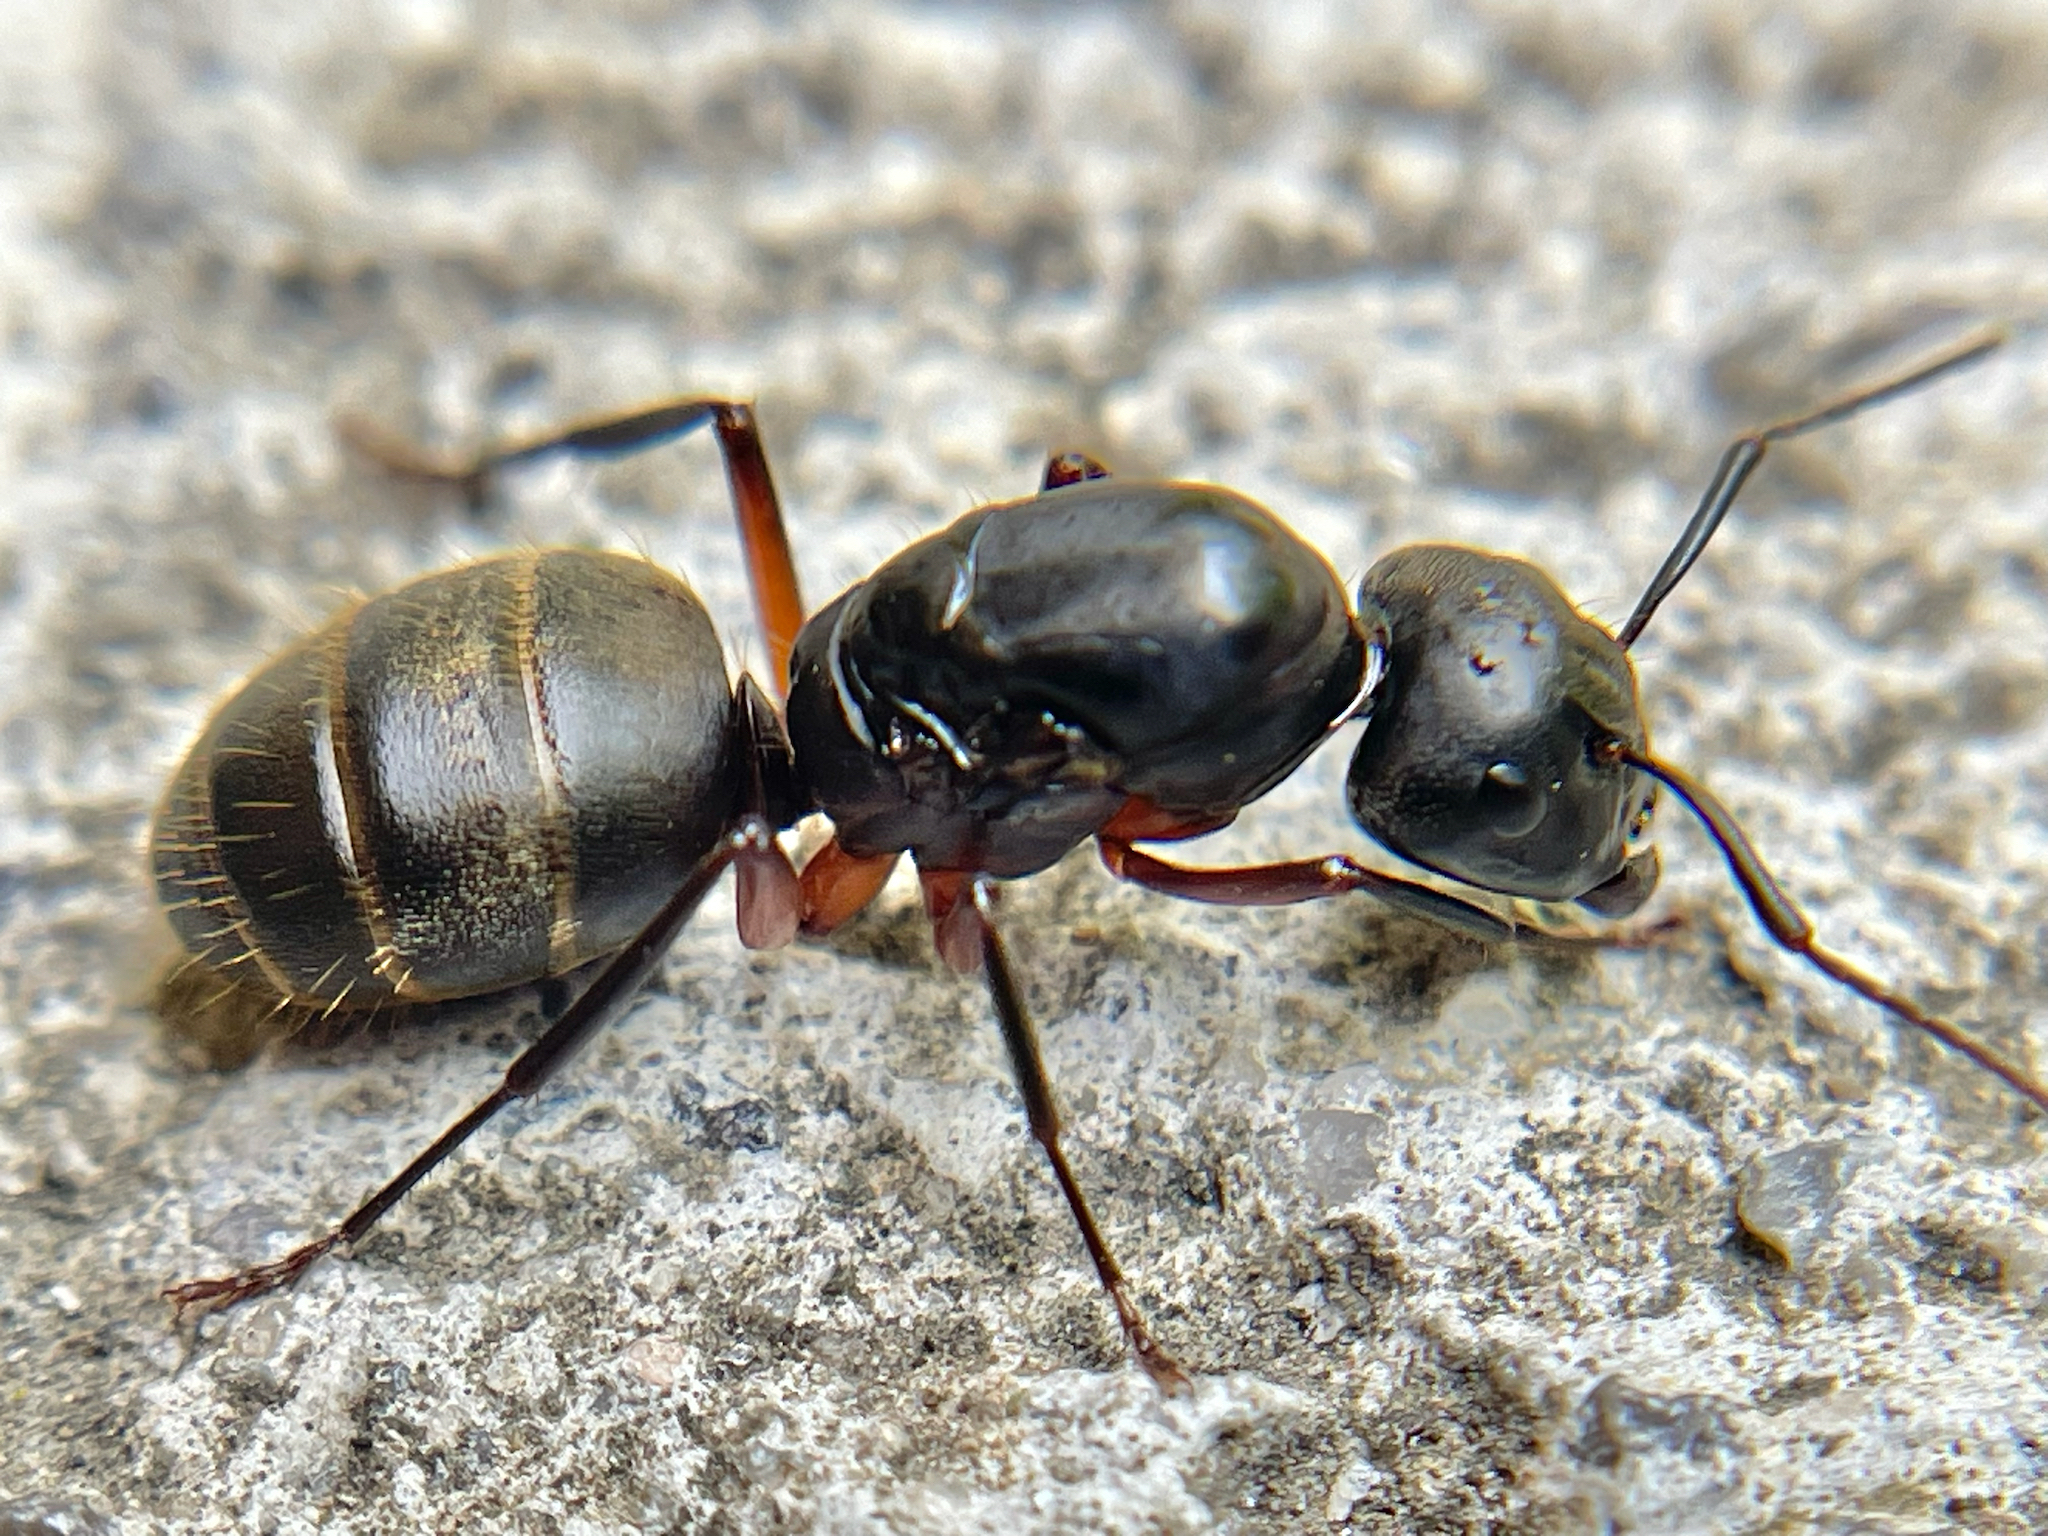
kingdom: Animalia
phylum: Arthropoda
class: Insecta
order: Hymenoptera
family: Formicidae
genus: Camponotus
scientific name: Camponotus chromaiodes
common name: Red carpenter ant
